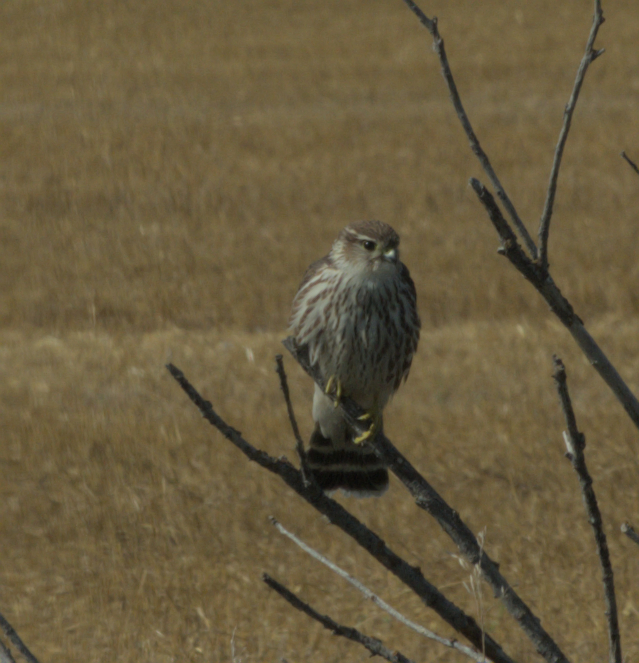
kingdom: Animalia
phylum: Chordata
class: Aves
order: Falconiformes
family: Falconidae
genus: Falco
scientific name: Falco columbarius
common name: Merlin
